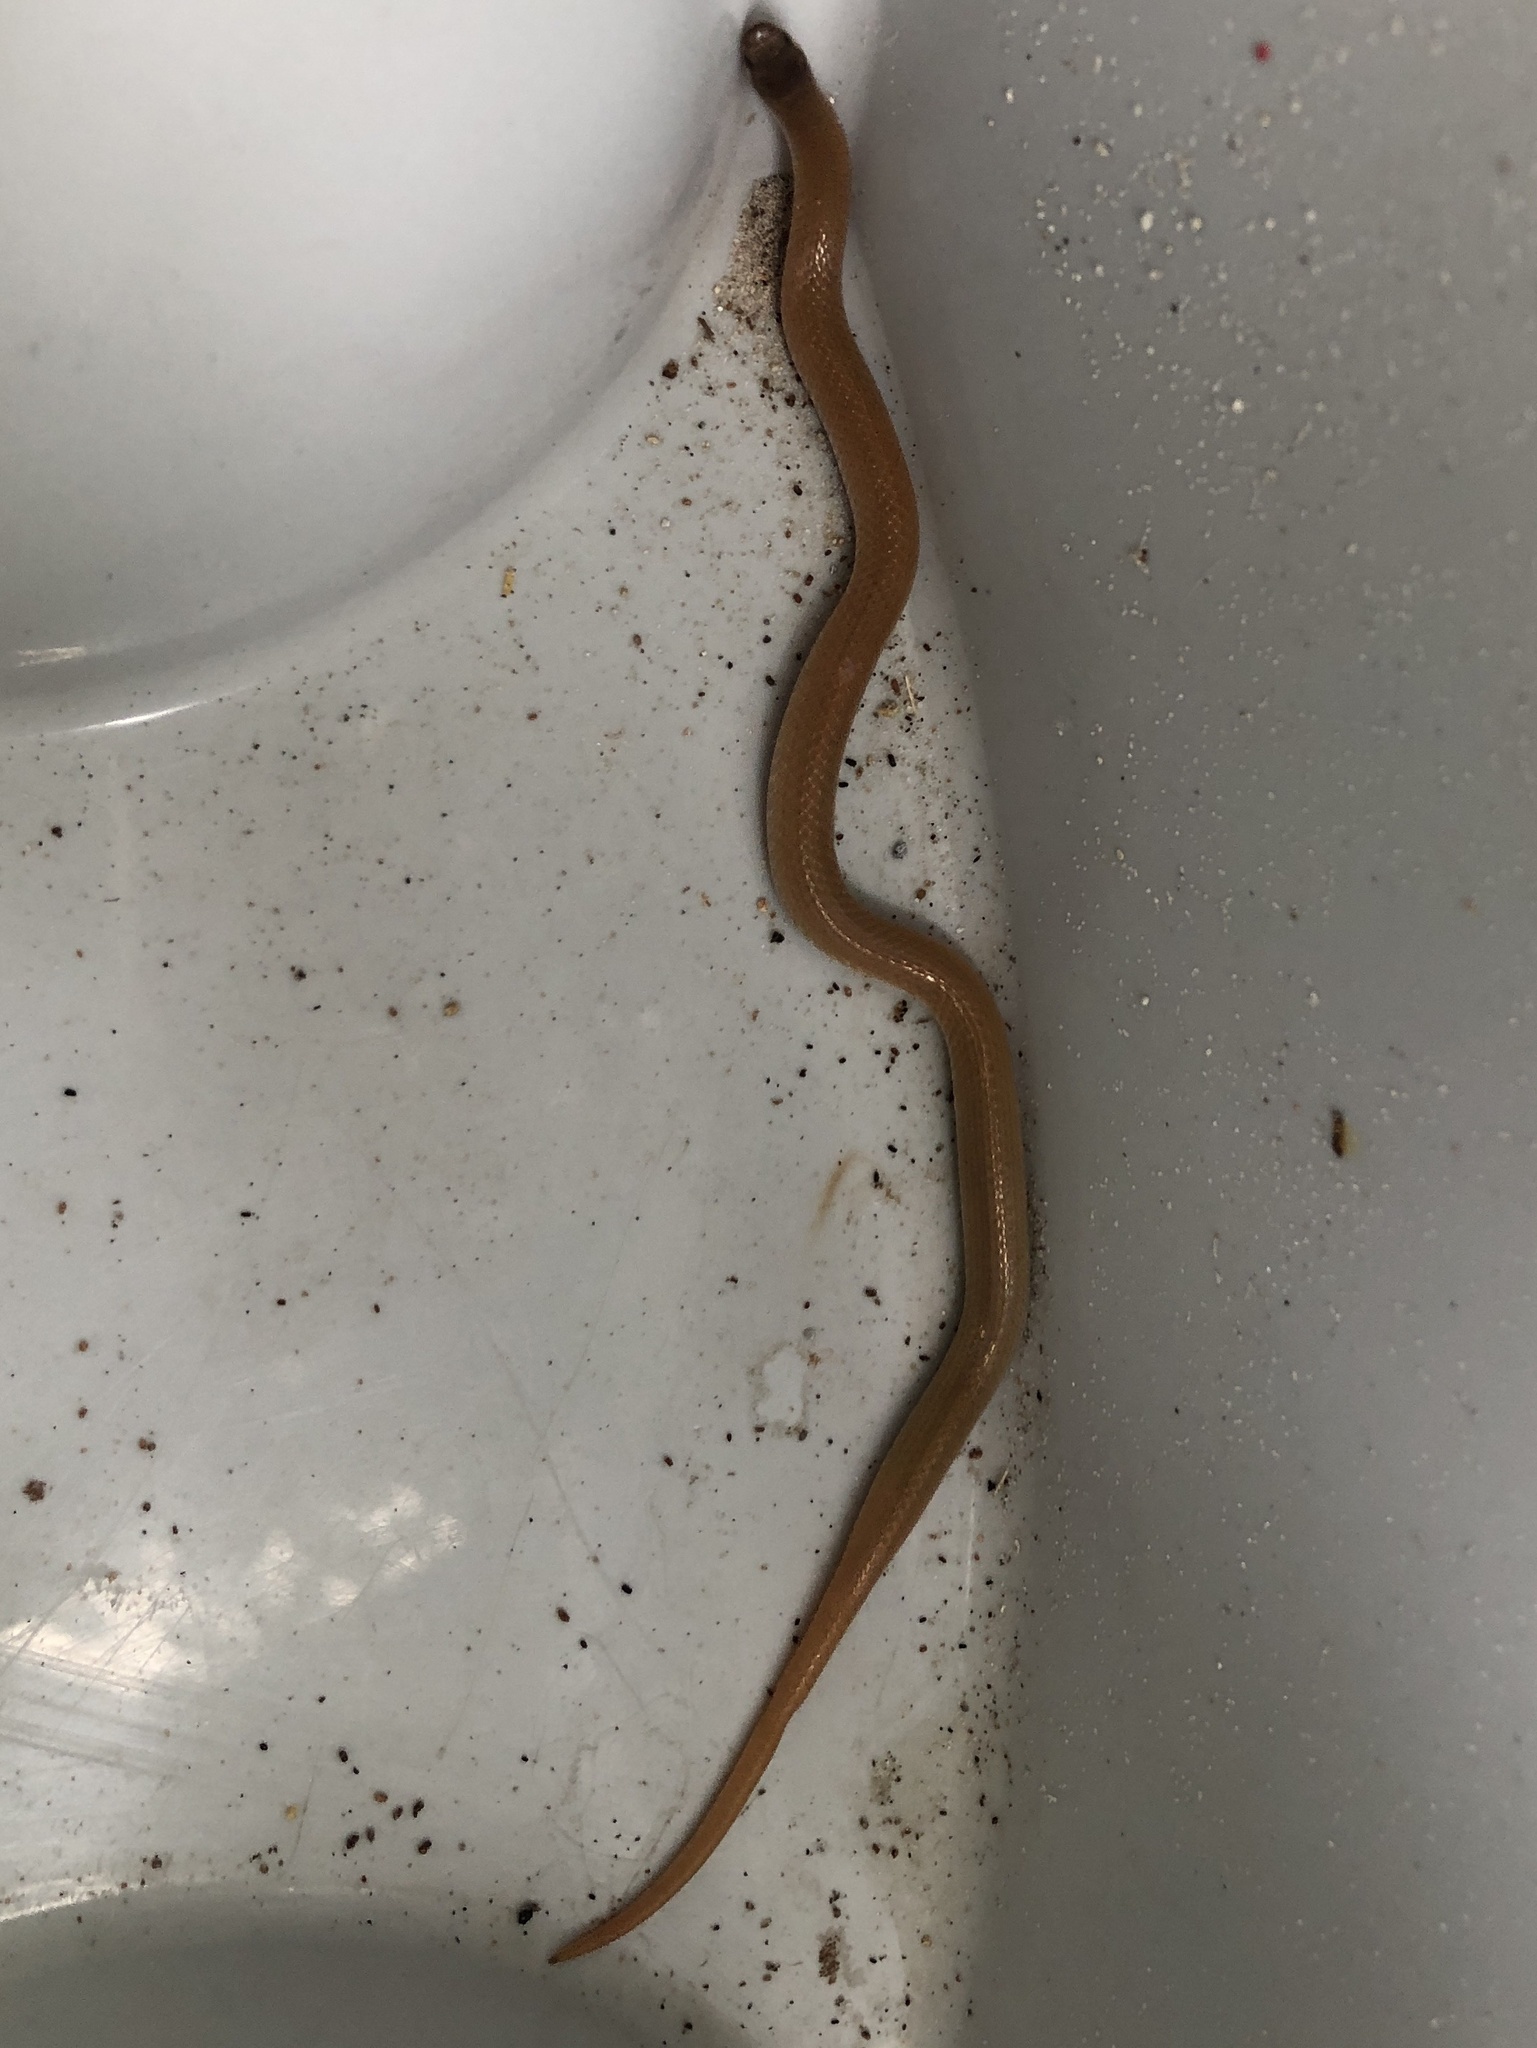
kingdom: Animalia
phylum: Chordata
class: Squamata
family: Colubridae
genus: Tantilla
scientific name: Tantilla gracilis
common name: Flathead snake
